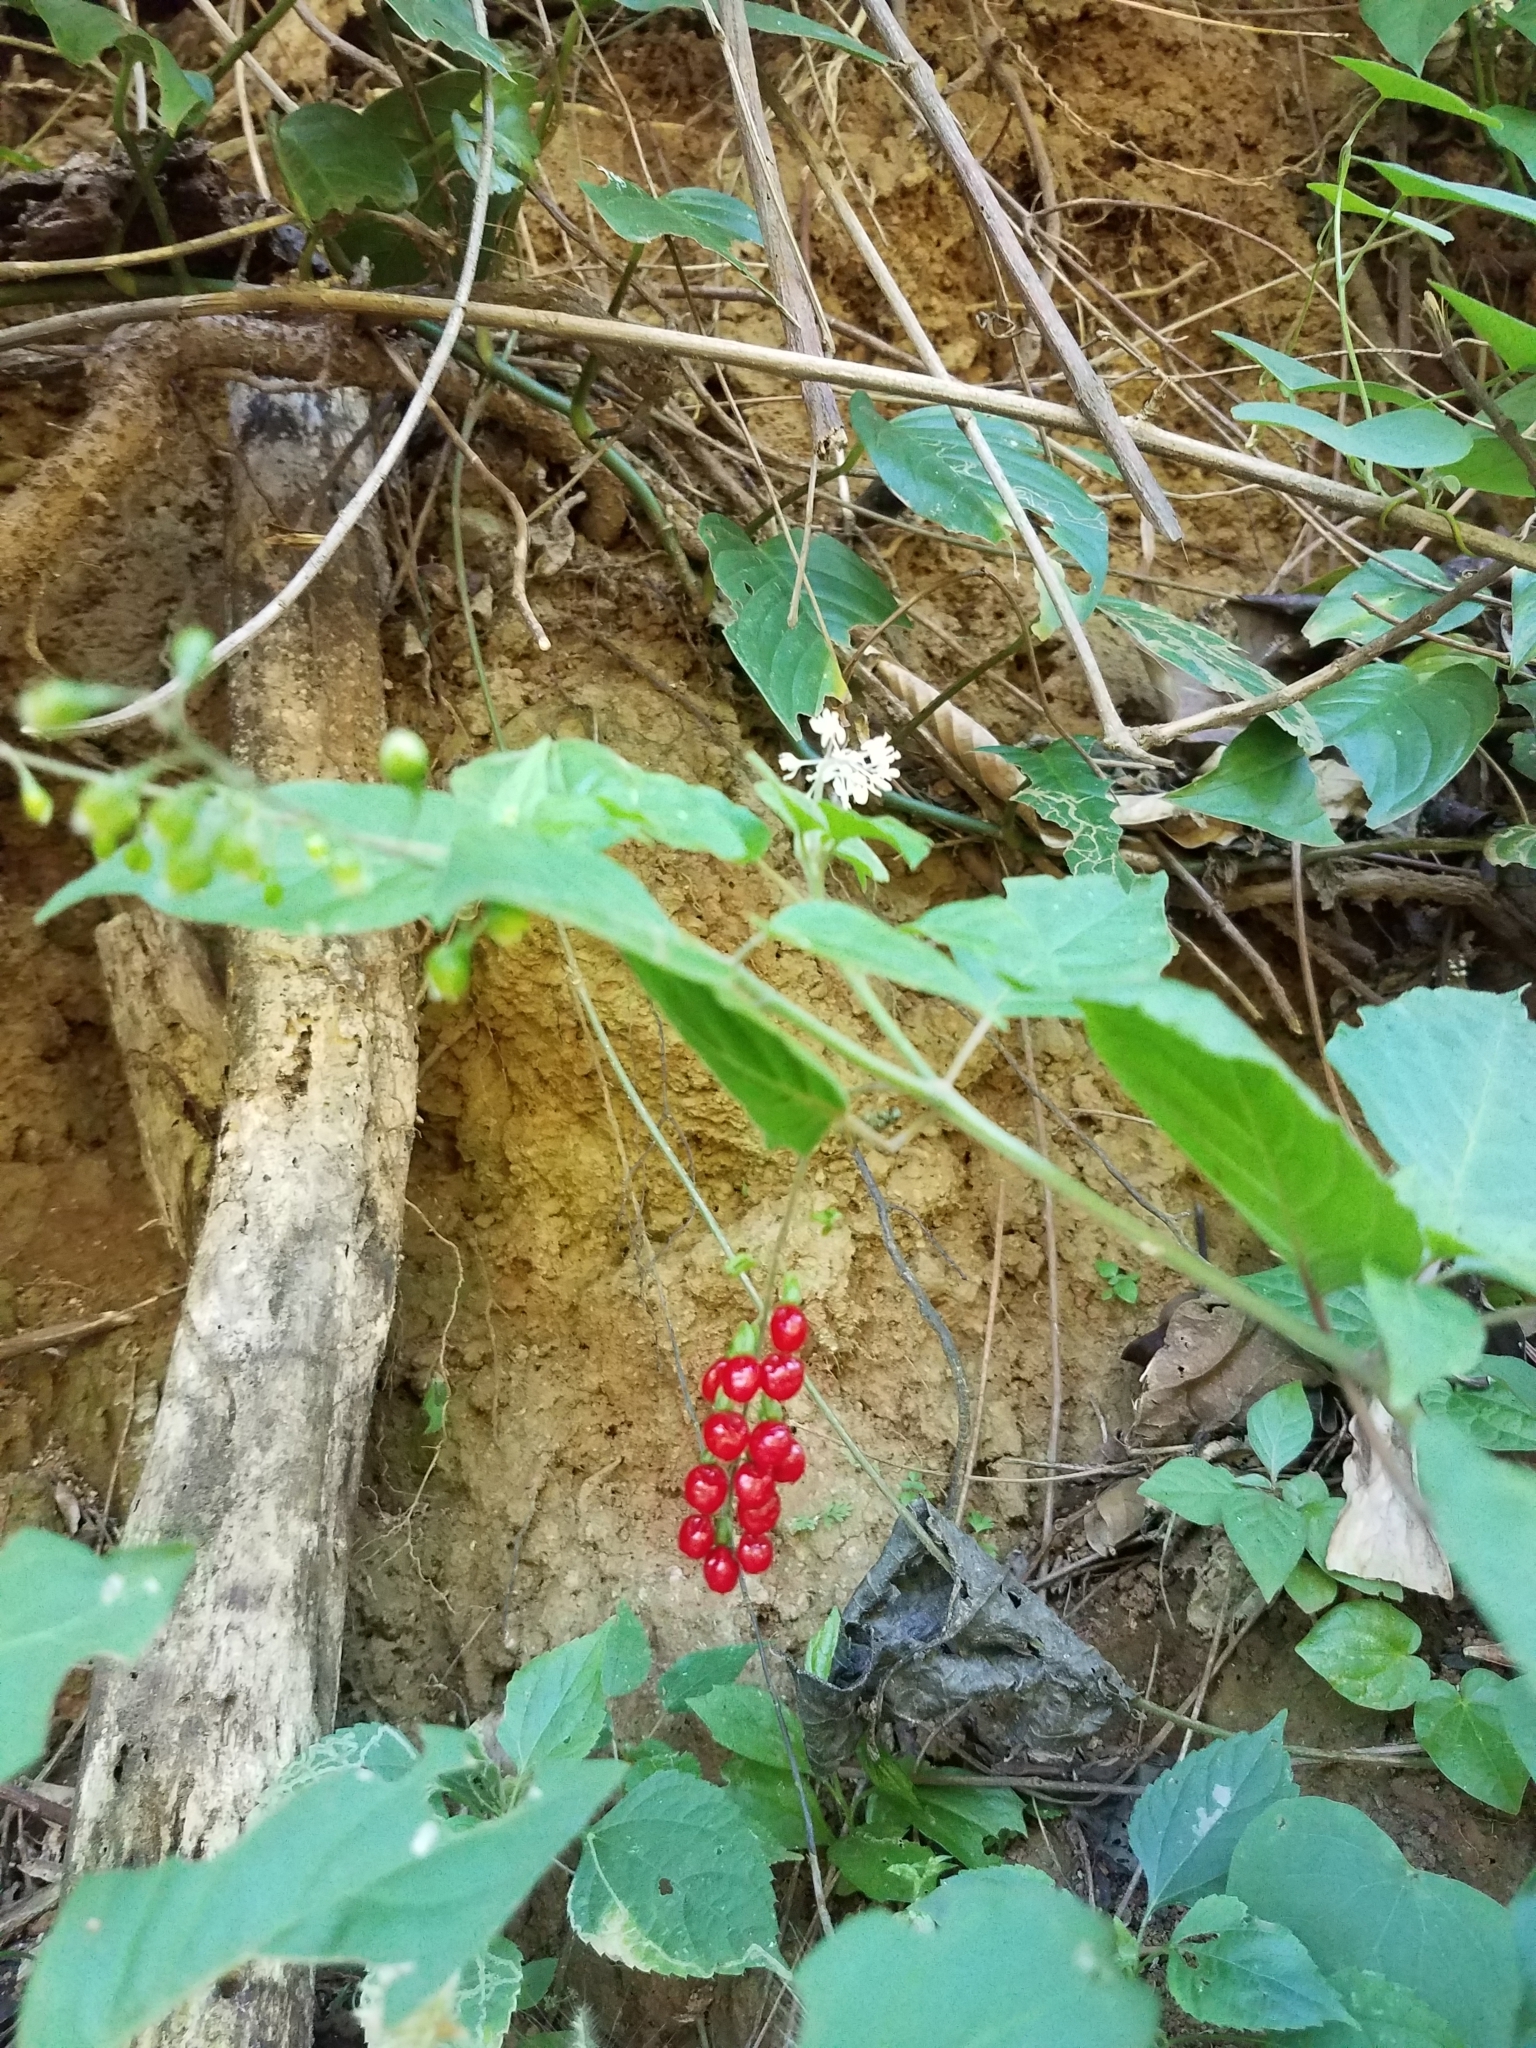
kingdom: Plantae
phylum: Tracheophyta
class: Magnoliopsida
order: Caryophyllales
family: Phytolaccaceae
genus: Rivina
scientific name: Rivina humilis
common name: Rougeplant
